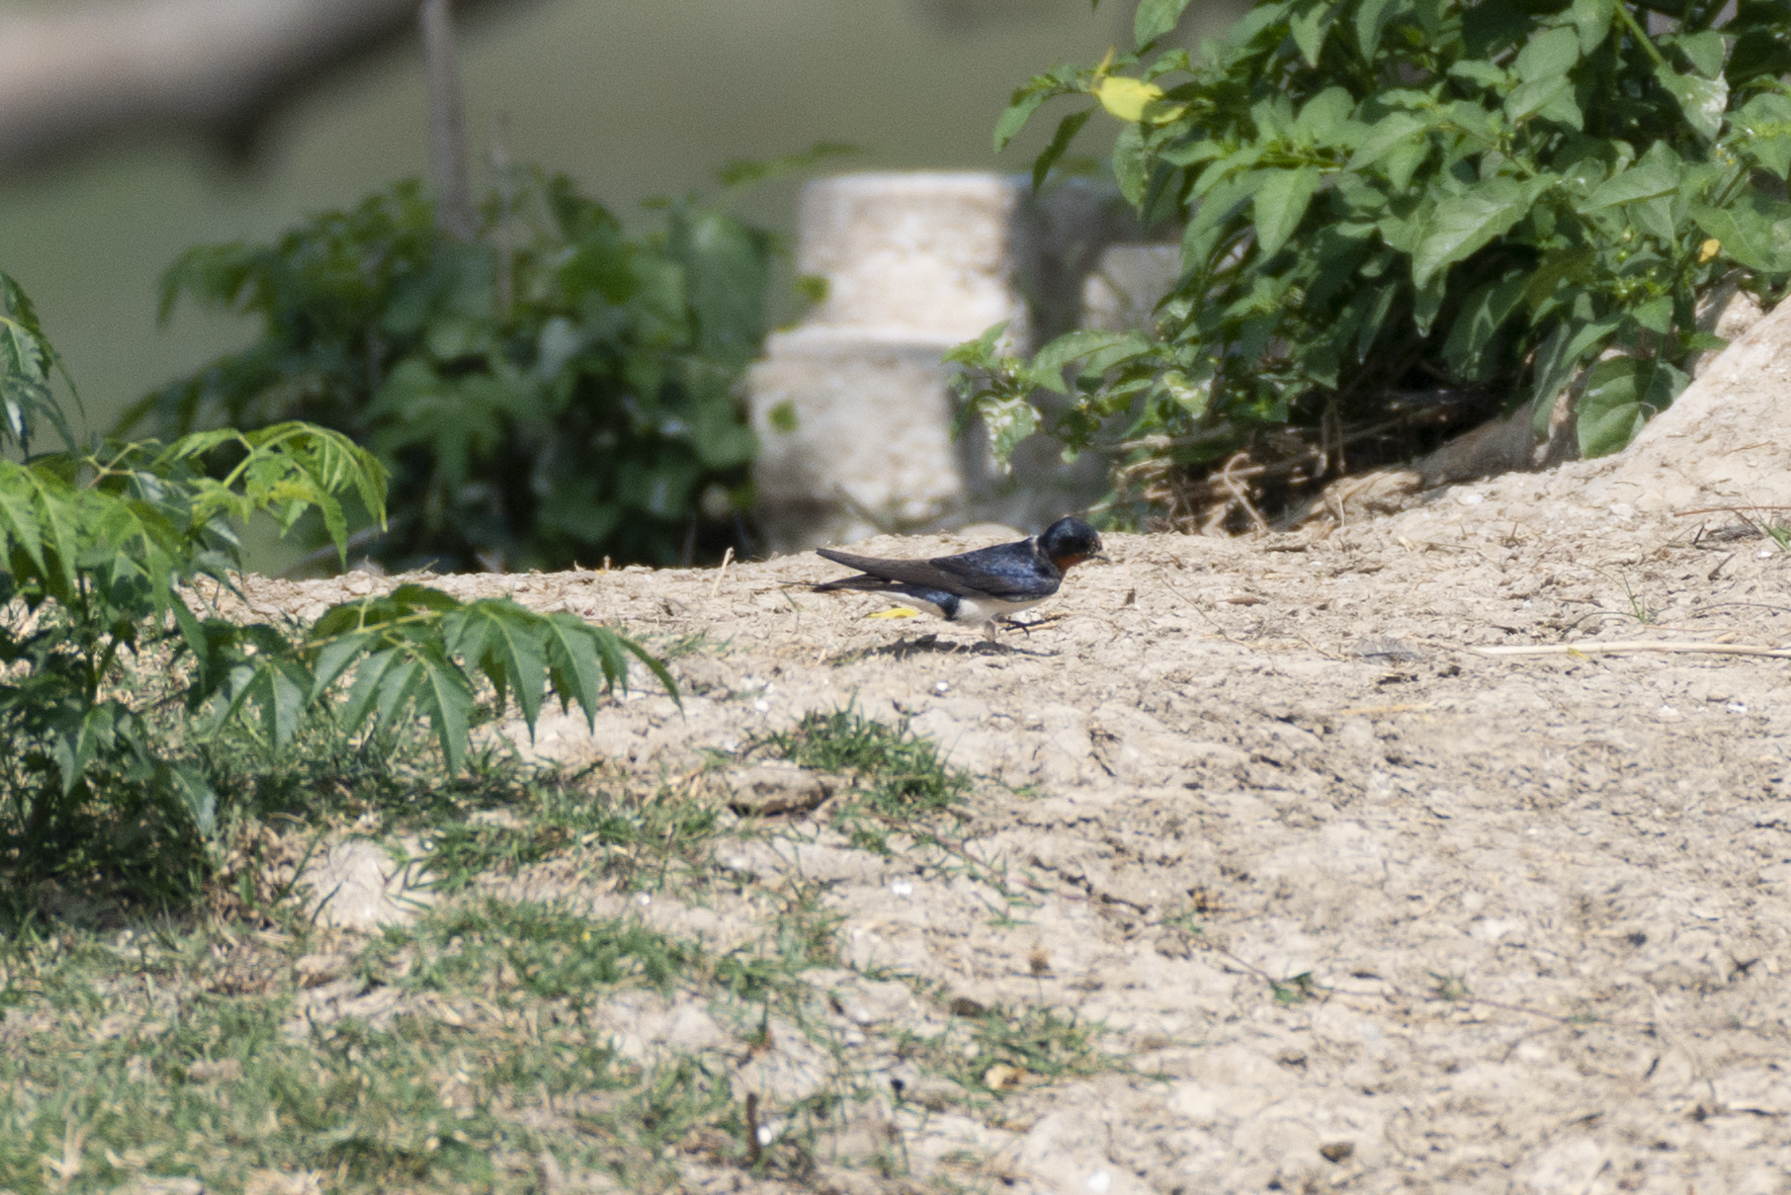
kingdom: Animalia
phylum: Chordata
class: Aves
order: Passeriformes
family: Hirundinidae
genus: Hirundo
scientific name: Hirundo rustica
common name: Barn swallow
